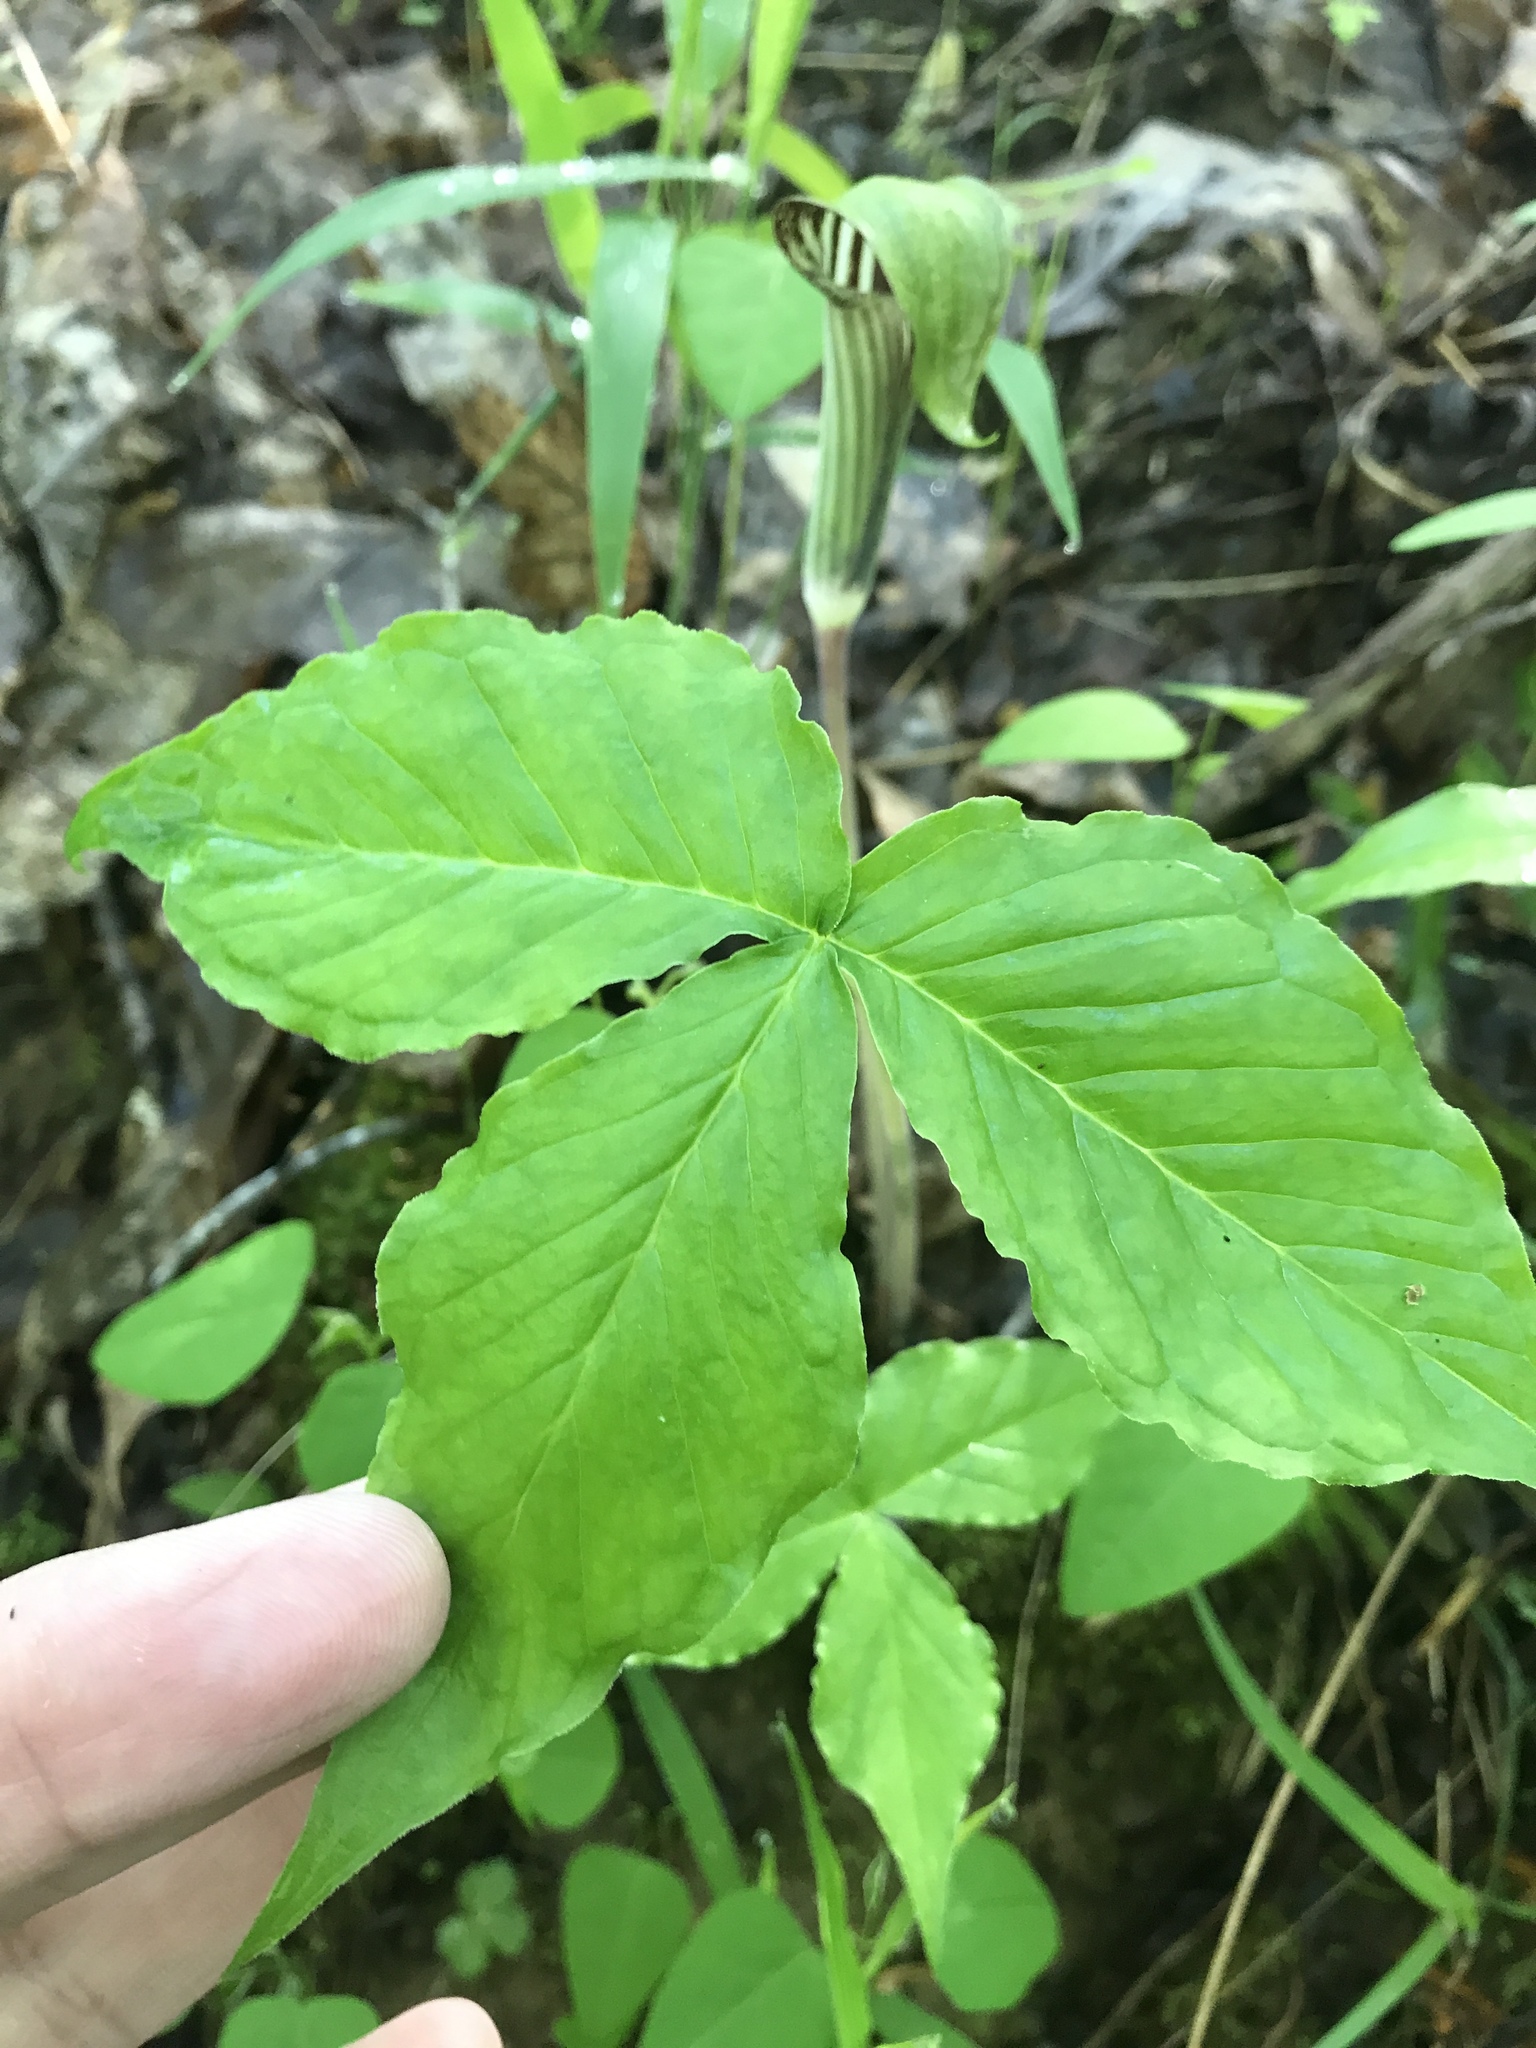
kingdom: Plantae
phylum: Tracheophyta
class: Liliopsida
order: Alismatales
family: Araceae
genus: Arisaema
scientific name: Arisaema triphyllum
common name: Jack-in-the-pulpit
